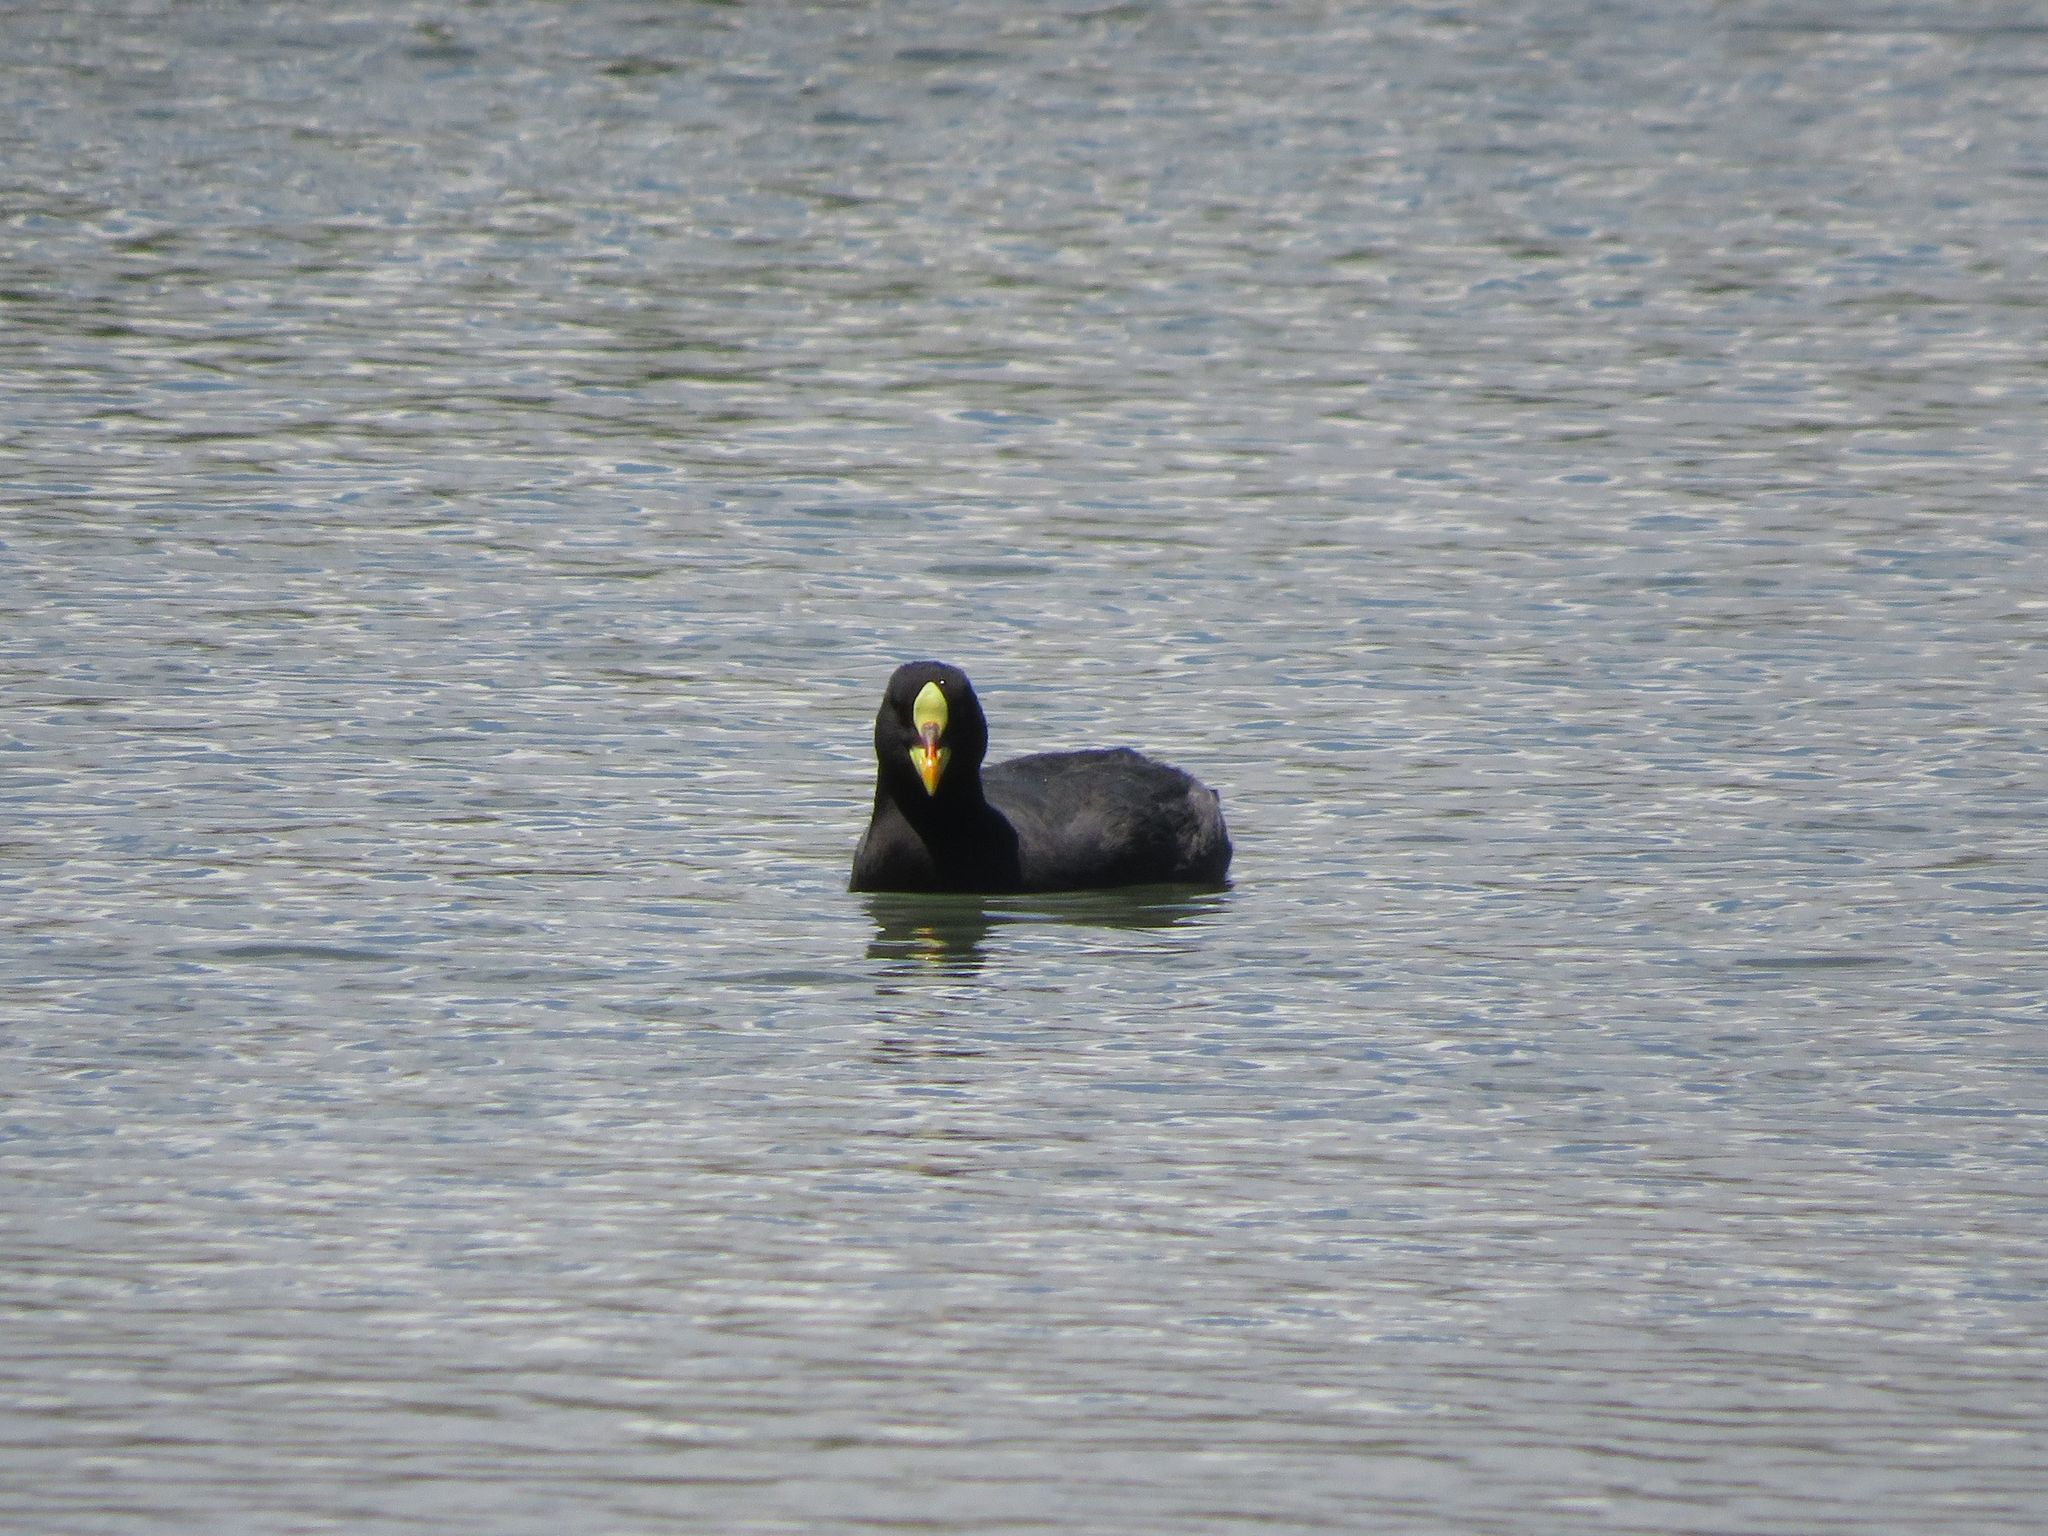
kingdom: Animalia
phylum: Chordata
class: Aves
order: Gruiformes
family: Rallidae
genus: Fulica
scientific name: Fulica armillata
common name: Red-gartered coot
